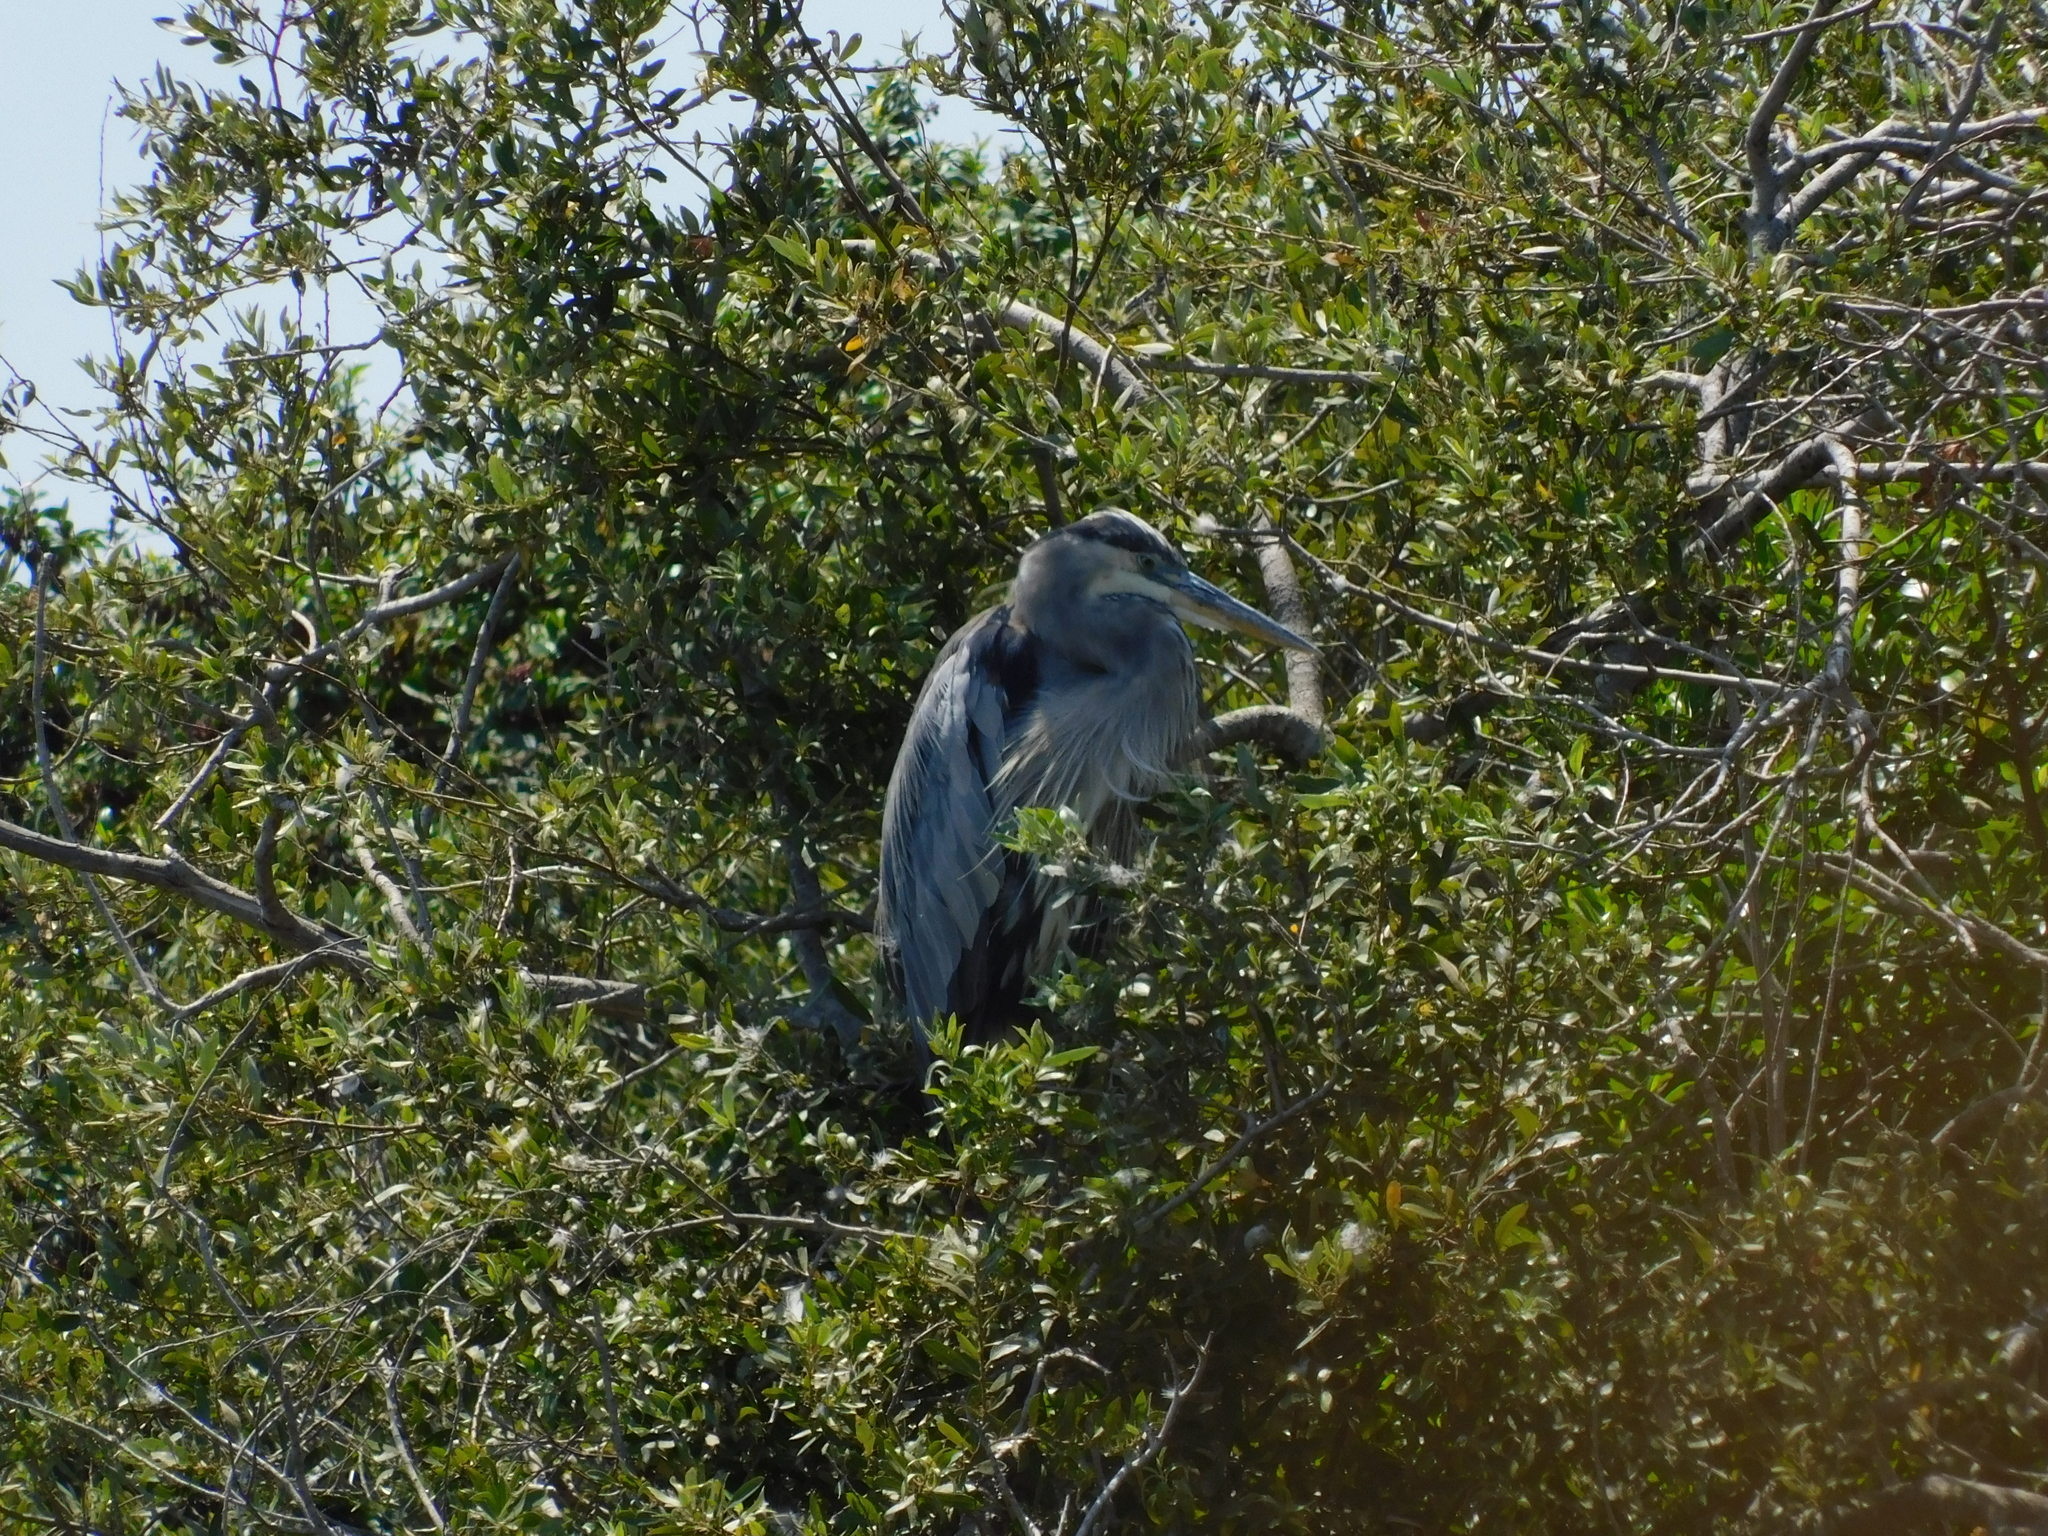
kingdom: Animalia
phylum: Chordata
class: Aves
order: Pelecaniformes
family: Ardeidae
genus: Ardea
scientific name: Ardea herodias
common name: Great blue heron
